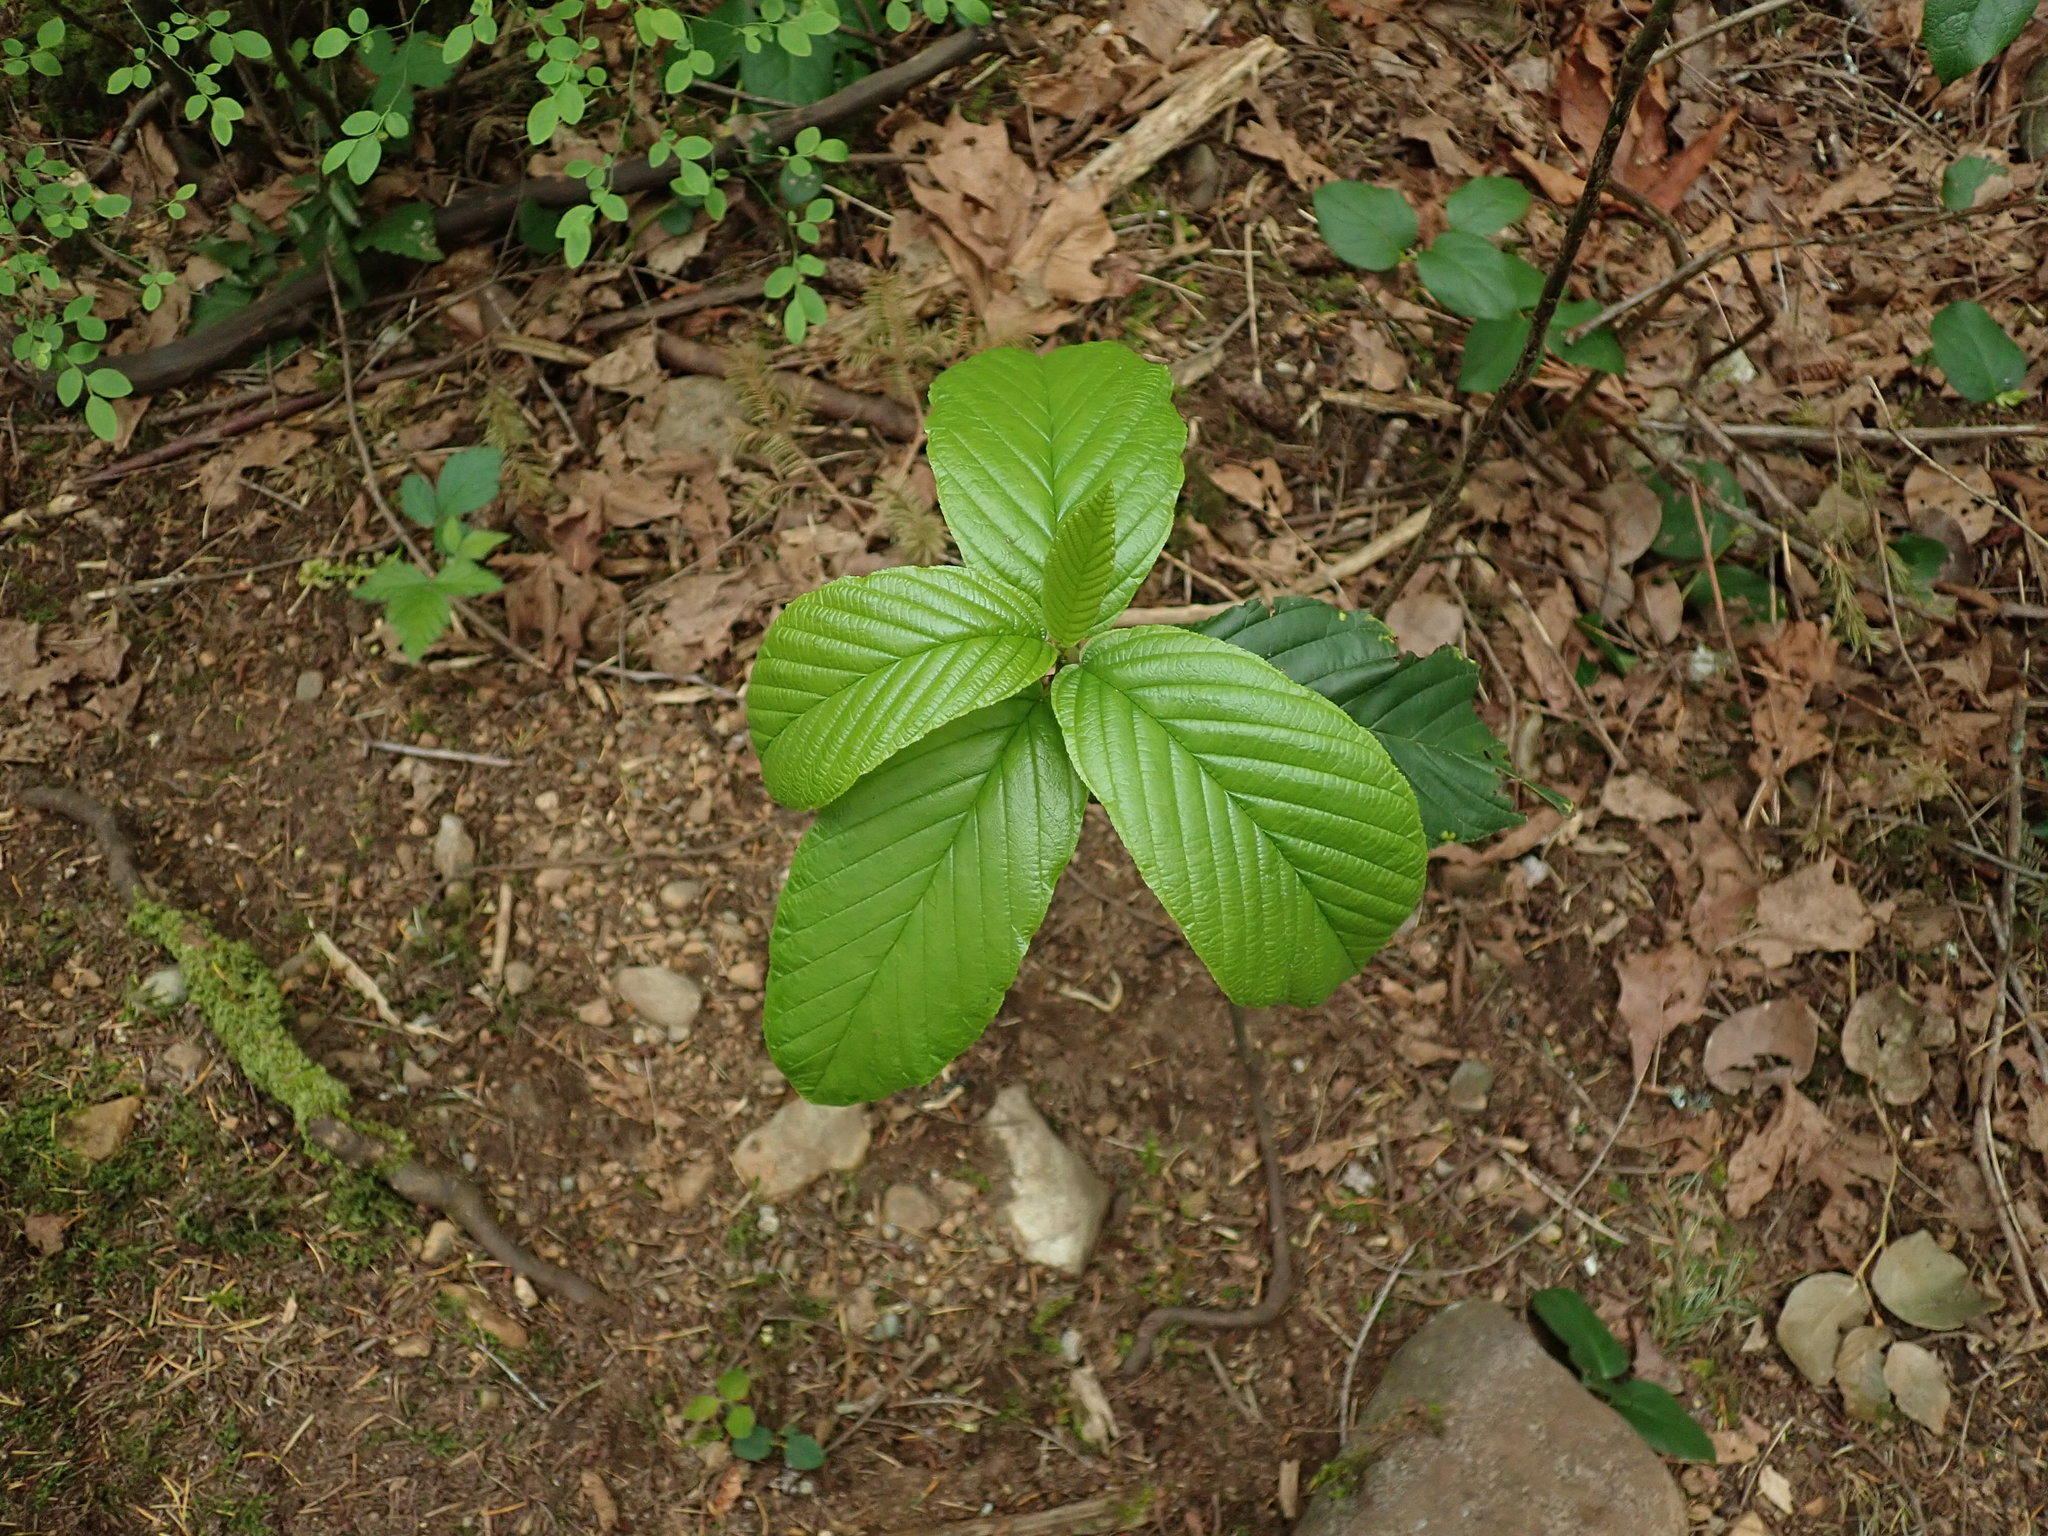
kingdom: Plantae
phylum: Tracheophyta
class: Magnoliopsida
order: Rosales
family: Rhamnaceae
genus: Frangula
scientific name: Frangula purshiana
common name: Cascara buckthorn
